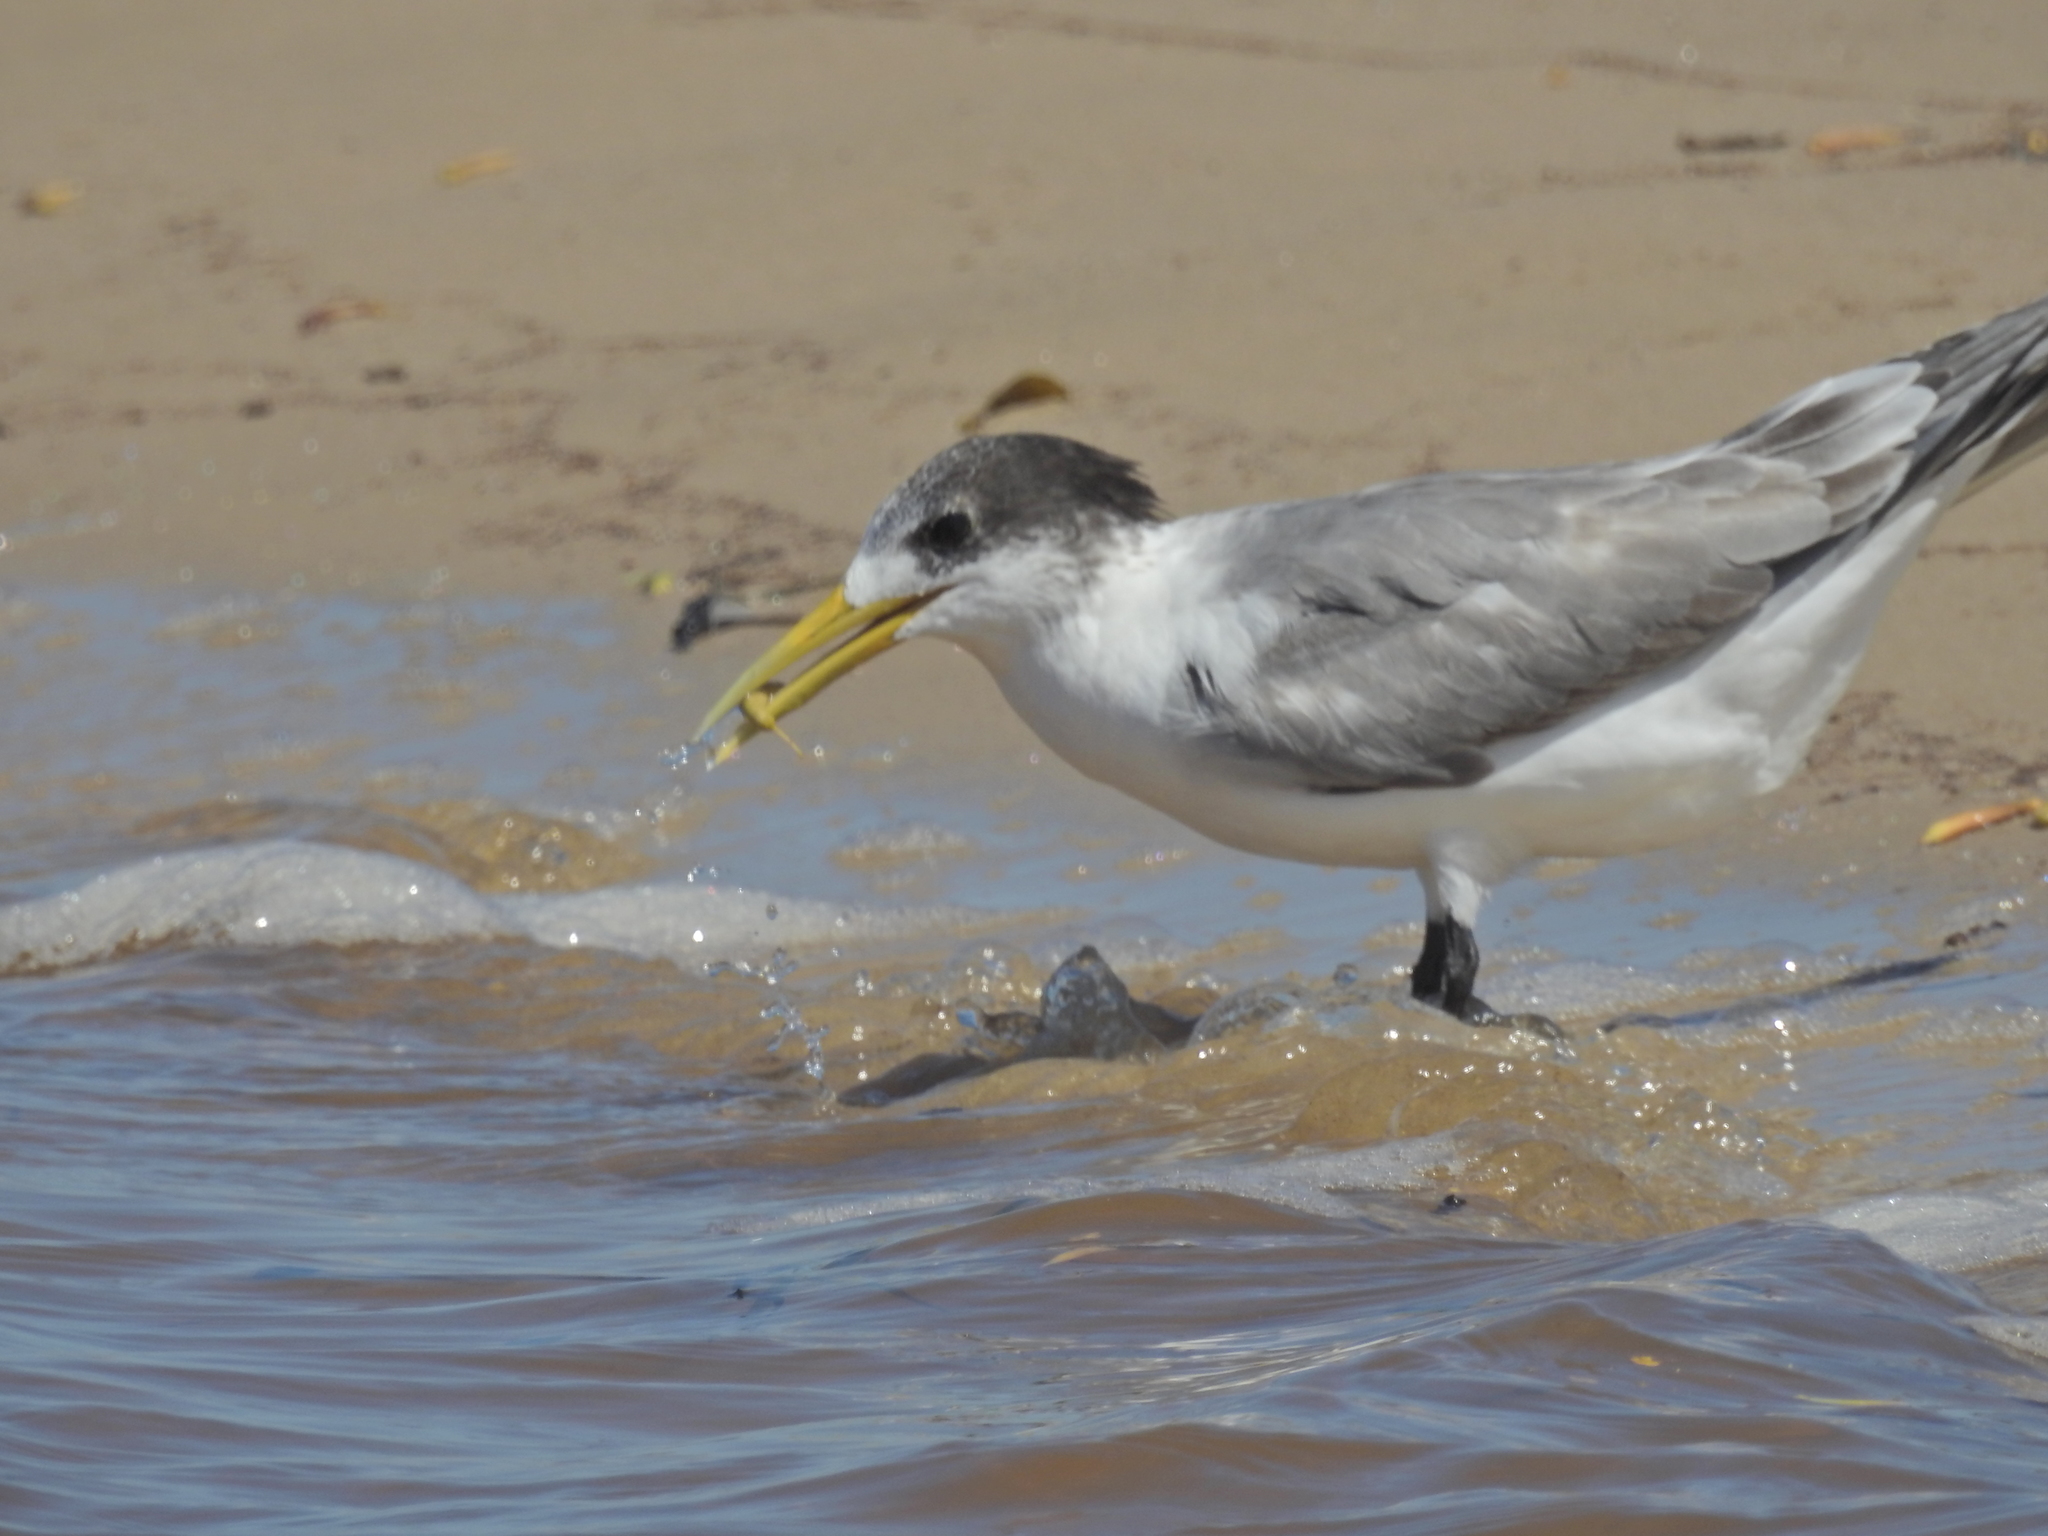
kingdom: Animalia
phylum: Chordata
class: Aves
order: Charadriiformes
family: Laridae
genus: Thalasseus
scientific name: Thalasseus bergii
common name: Greater crested tern
